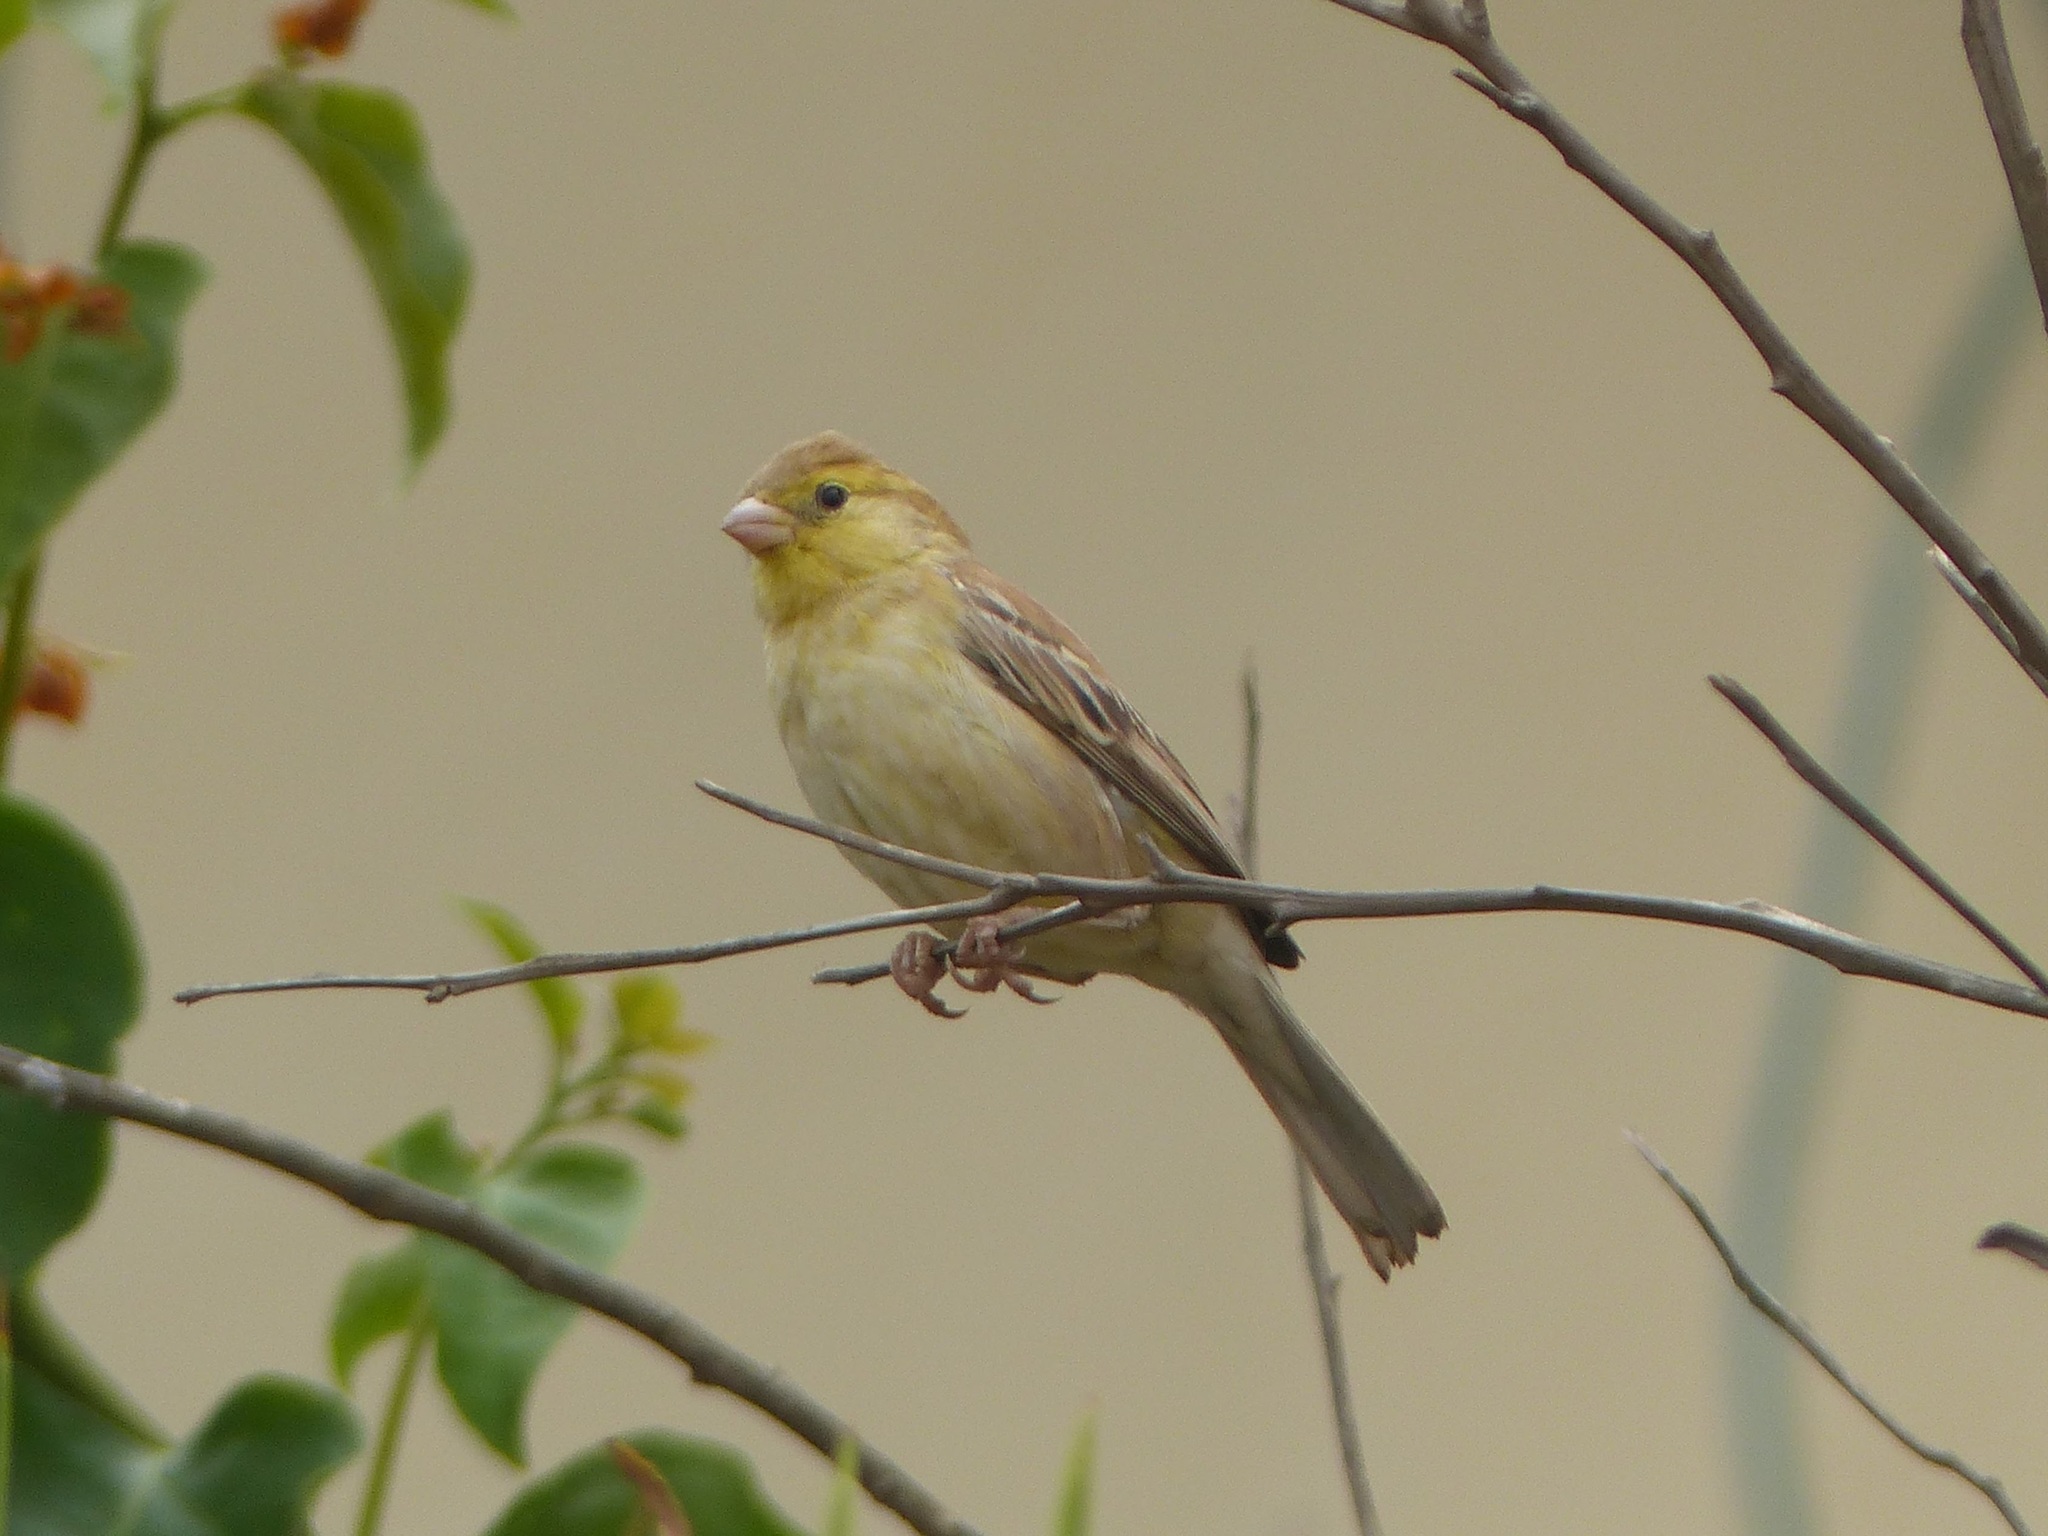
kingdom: Animalia
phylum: Chordata
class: Aves
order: Passeriformes
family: Passeridae
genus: Passer
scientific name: Passer luteus
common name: Sudan golden sparrow
